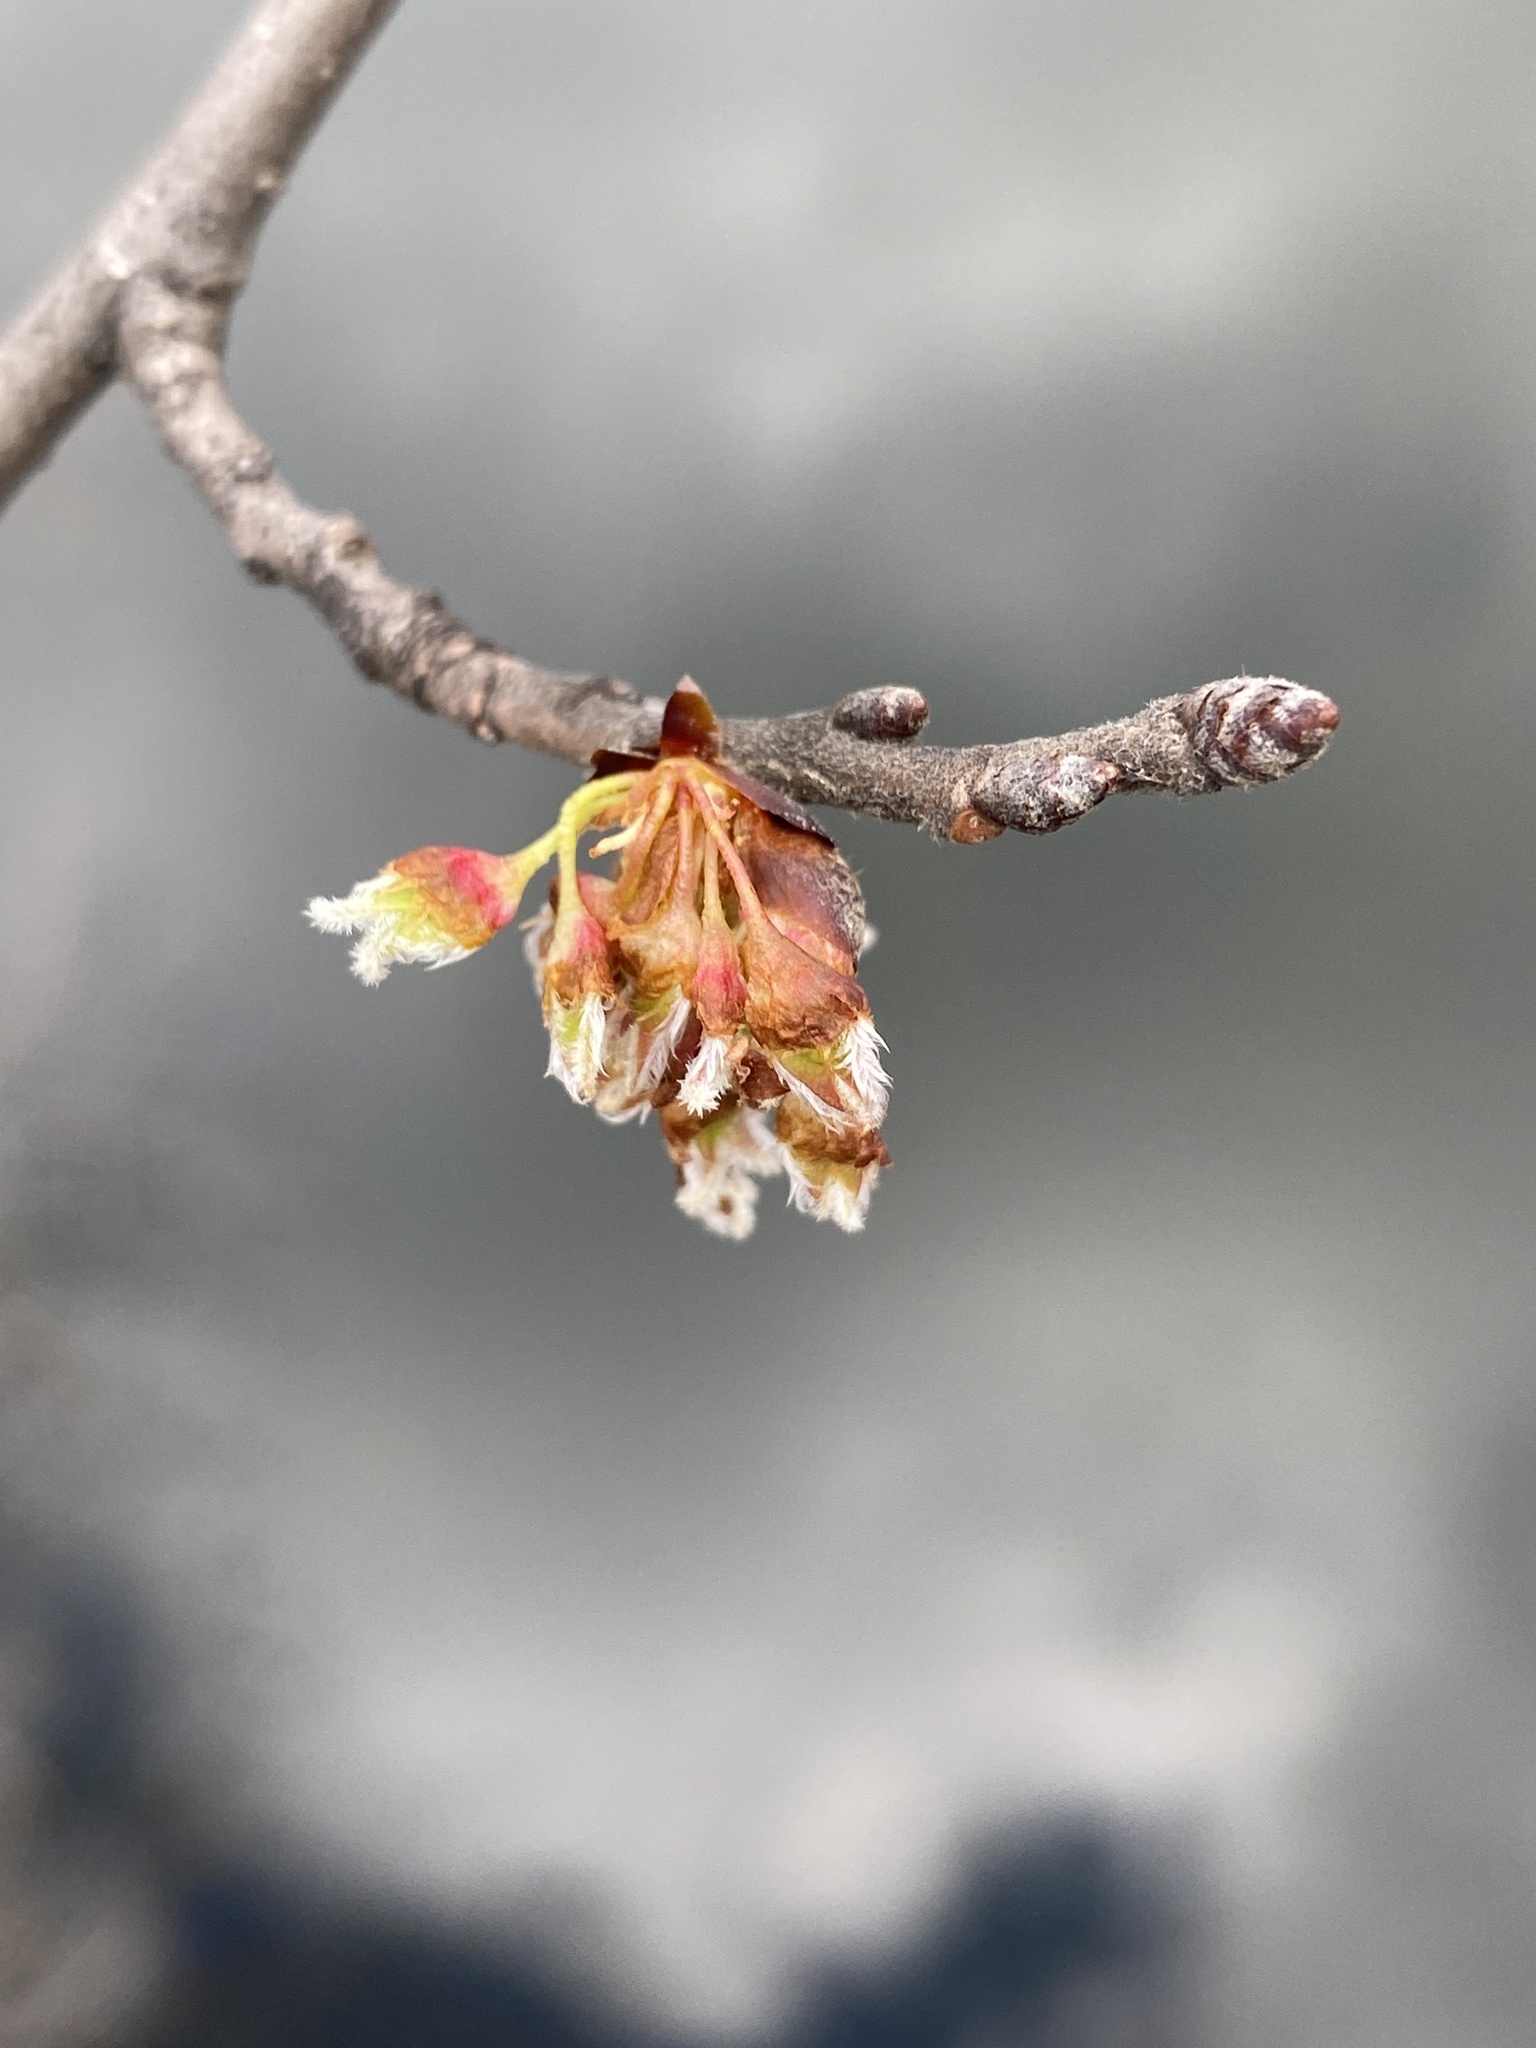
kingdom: Plantae
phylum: Tracheophyta
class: Magnoliopsida
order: Rosales
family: Ulmaceae
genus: Ulmus
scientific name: Ulmus americana
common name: American elm
